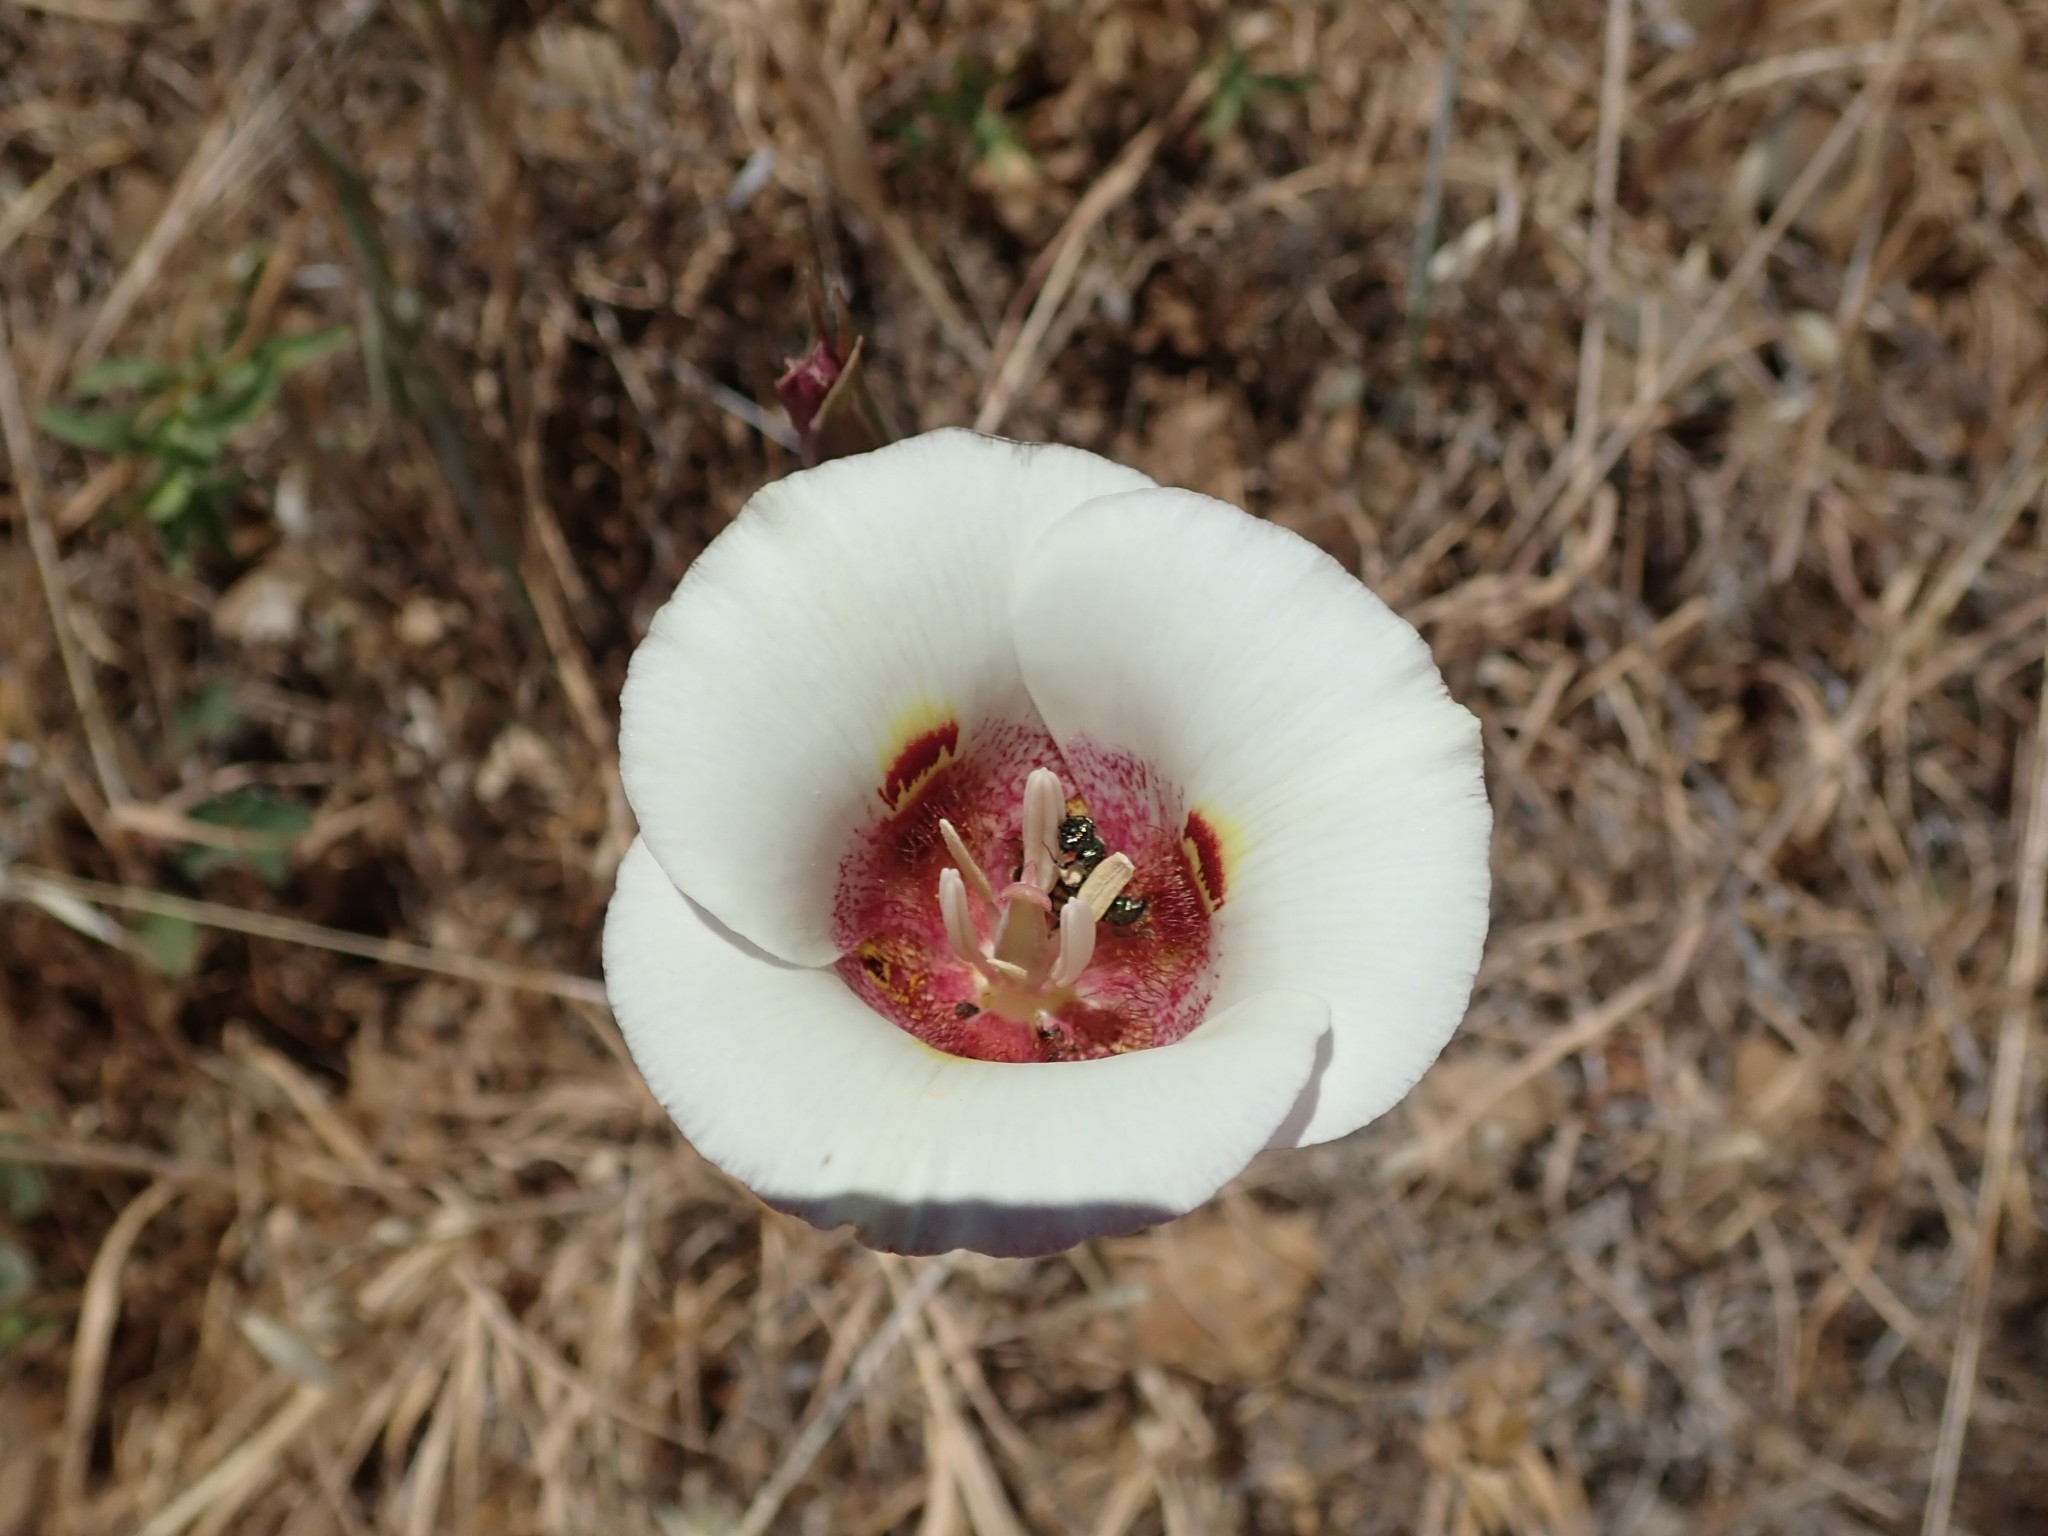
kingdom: Plantae
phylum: Tracheophyta
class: Liliopsida
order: Liliales
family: Liliaceae
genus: Calochortus
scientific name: Calochortus argillosus
